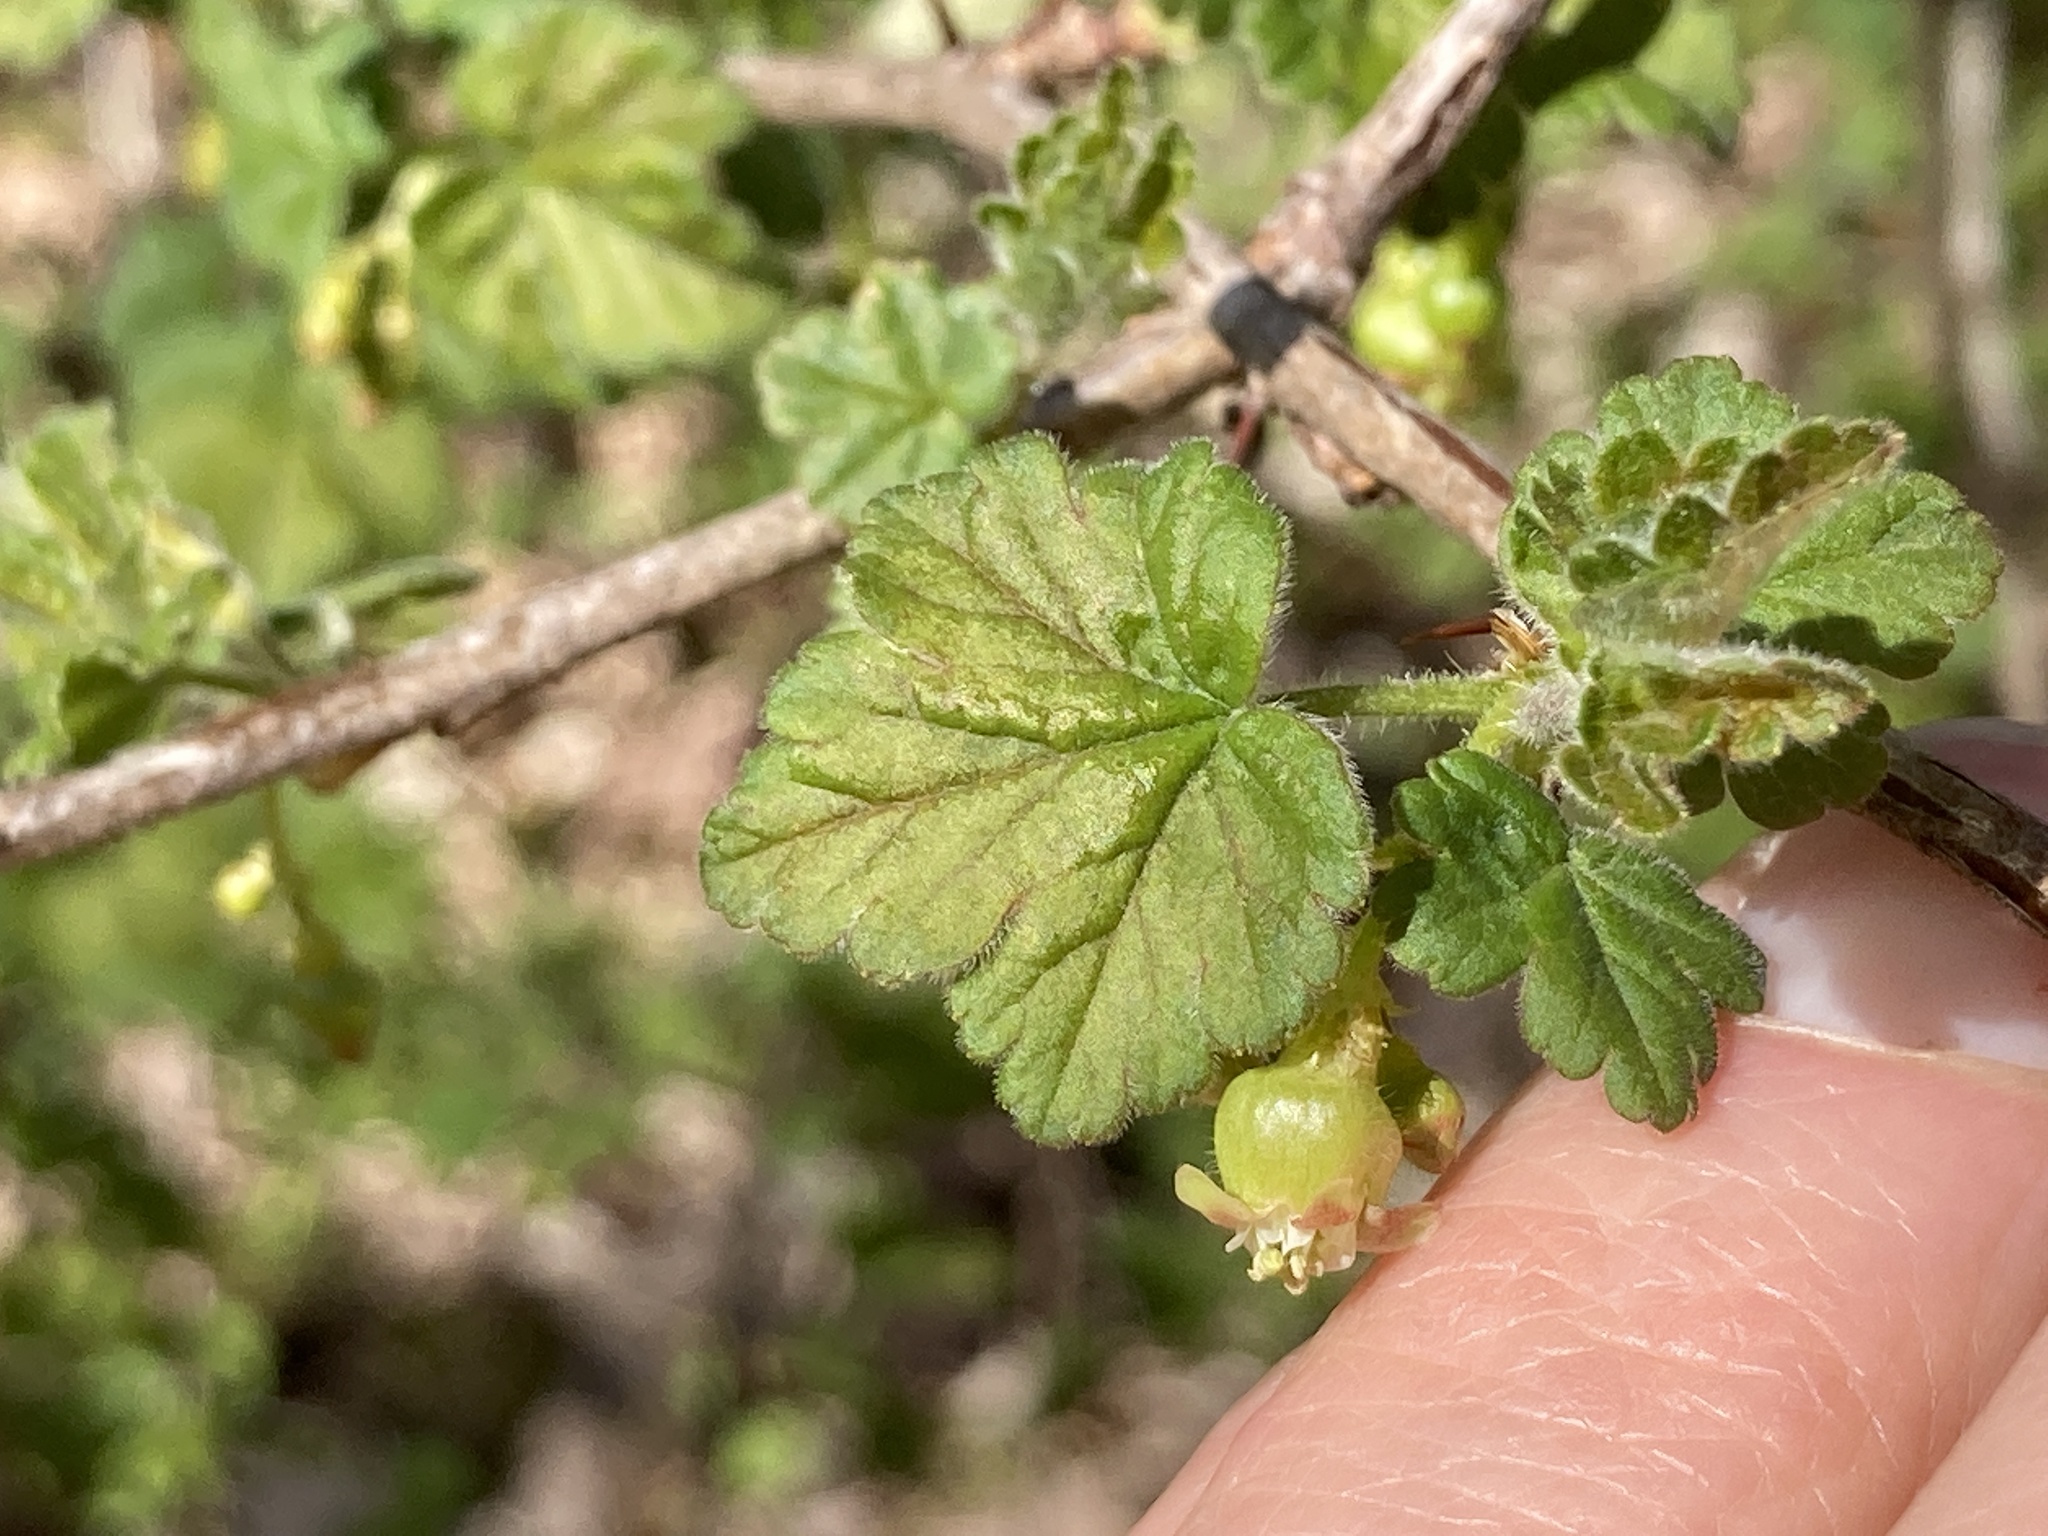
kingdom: Plantae
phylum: Tracheophyta
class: Magnoliopsida
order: Saxifragales
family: Grossulariaceae
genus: Ribes
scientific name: Ribes cynosbati
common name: American gooseberry
